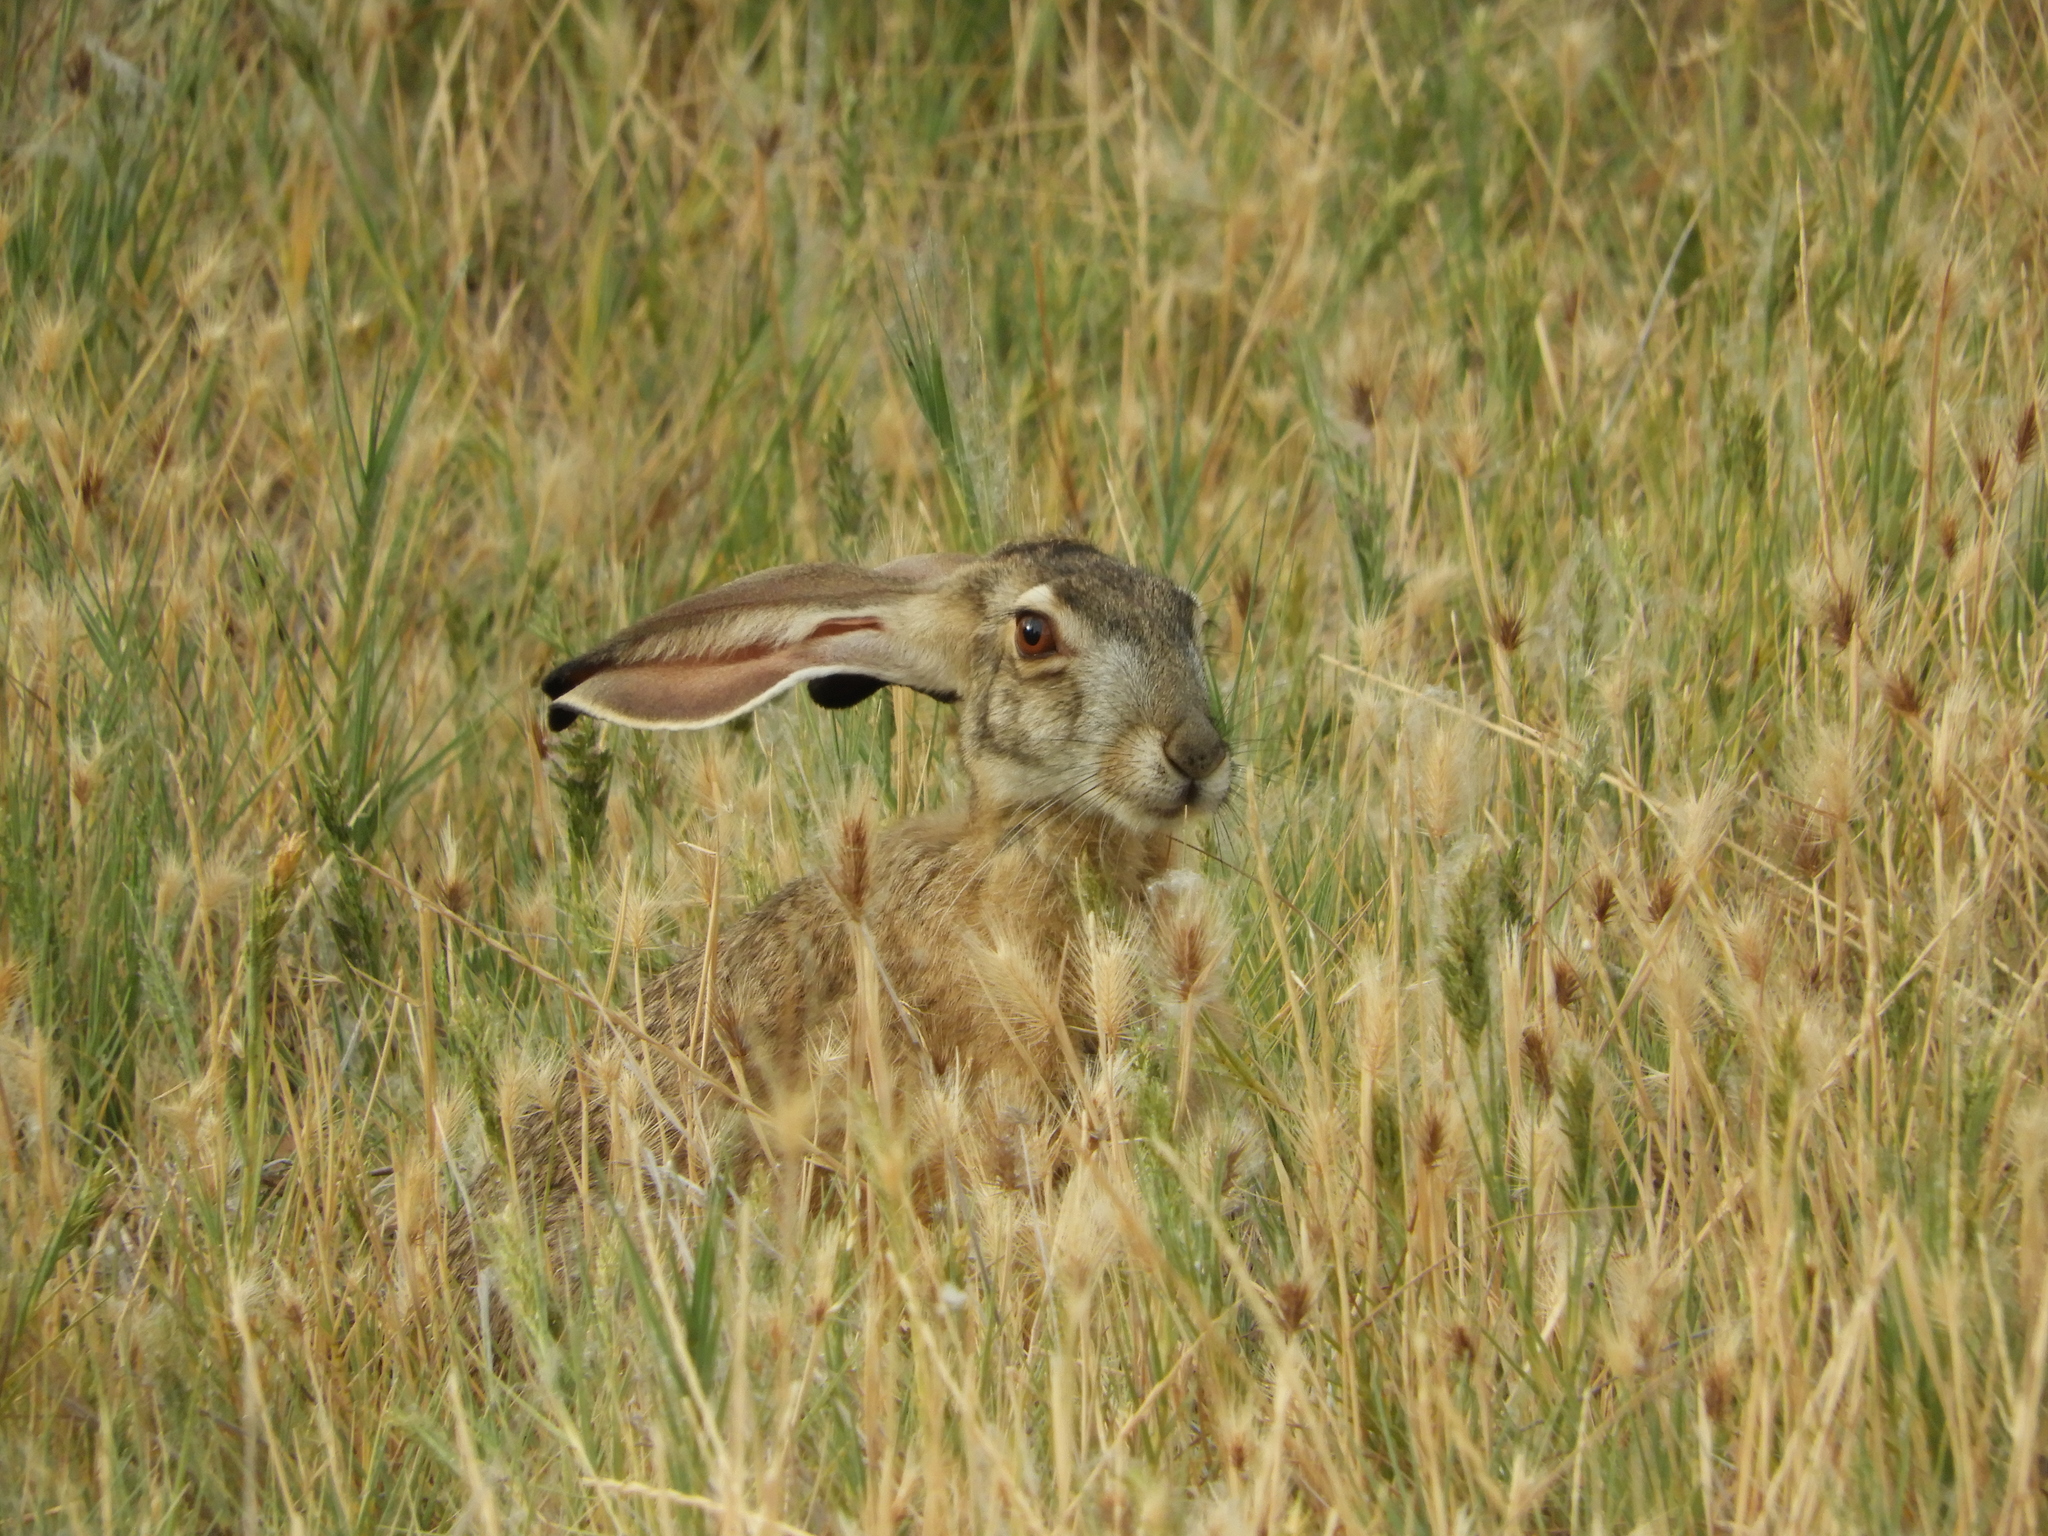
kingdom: Animalia
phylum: Chordata
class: Mammalia
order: Lagomorpha
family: Leporidae
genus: Lepus
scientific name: Lepus californicus
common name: Black-tailed jackrabbit
